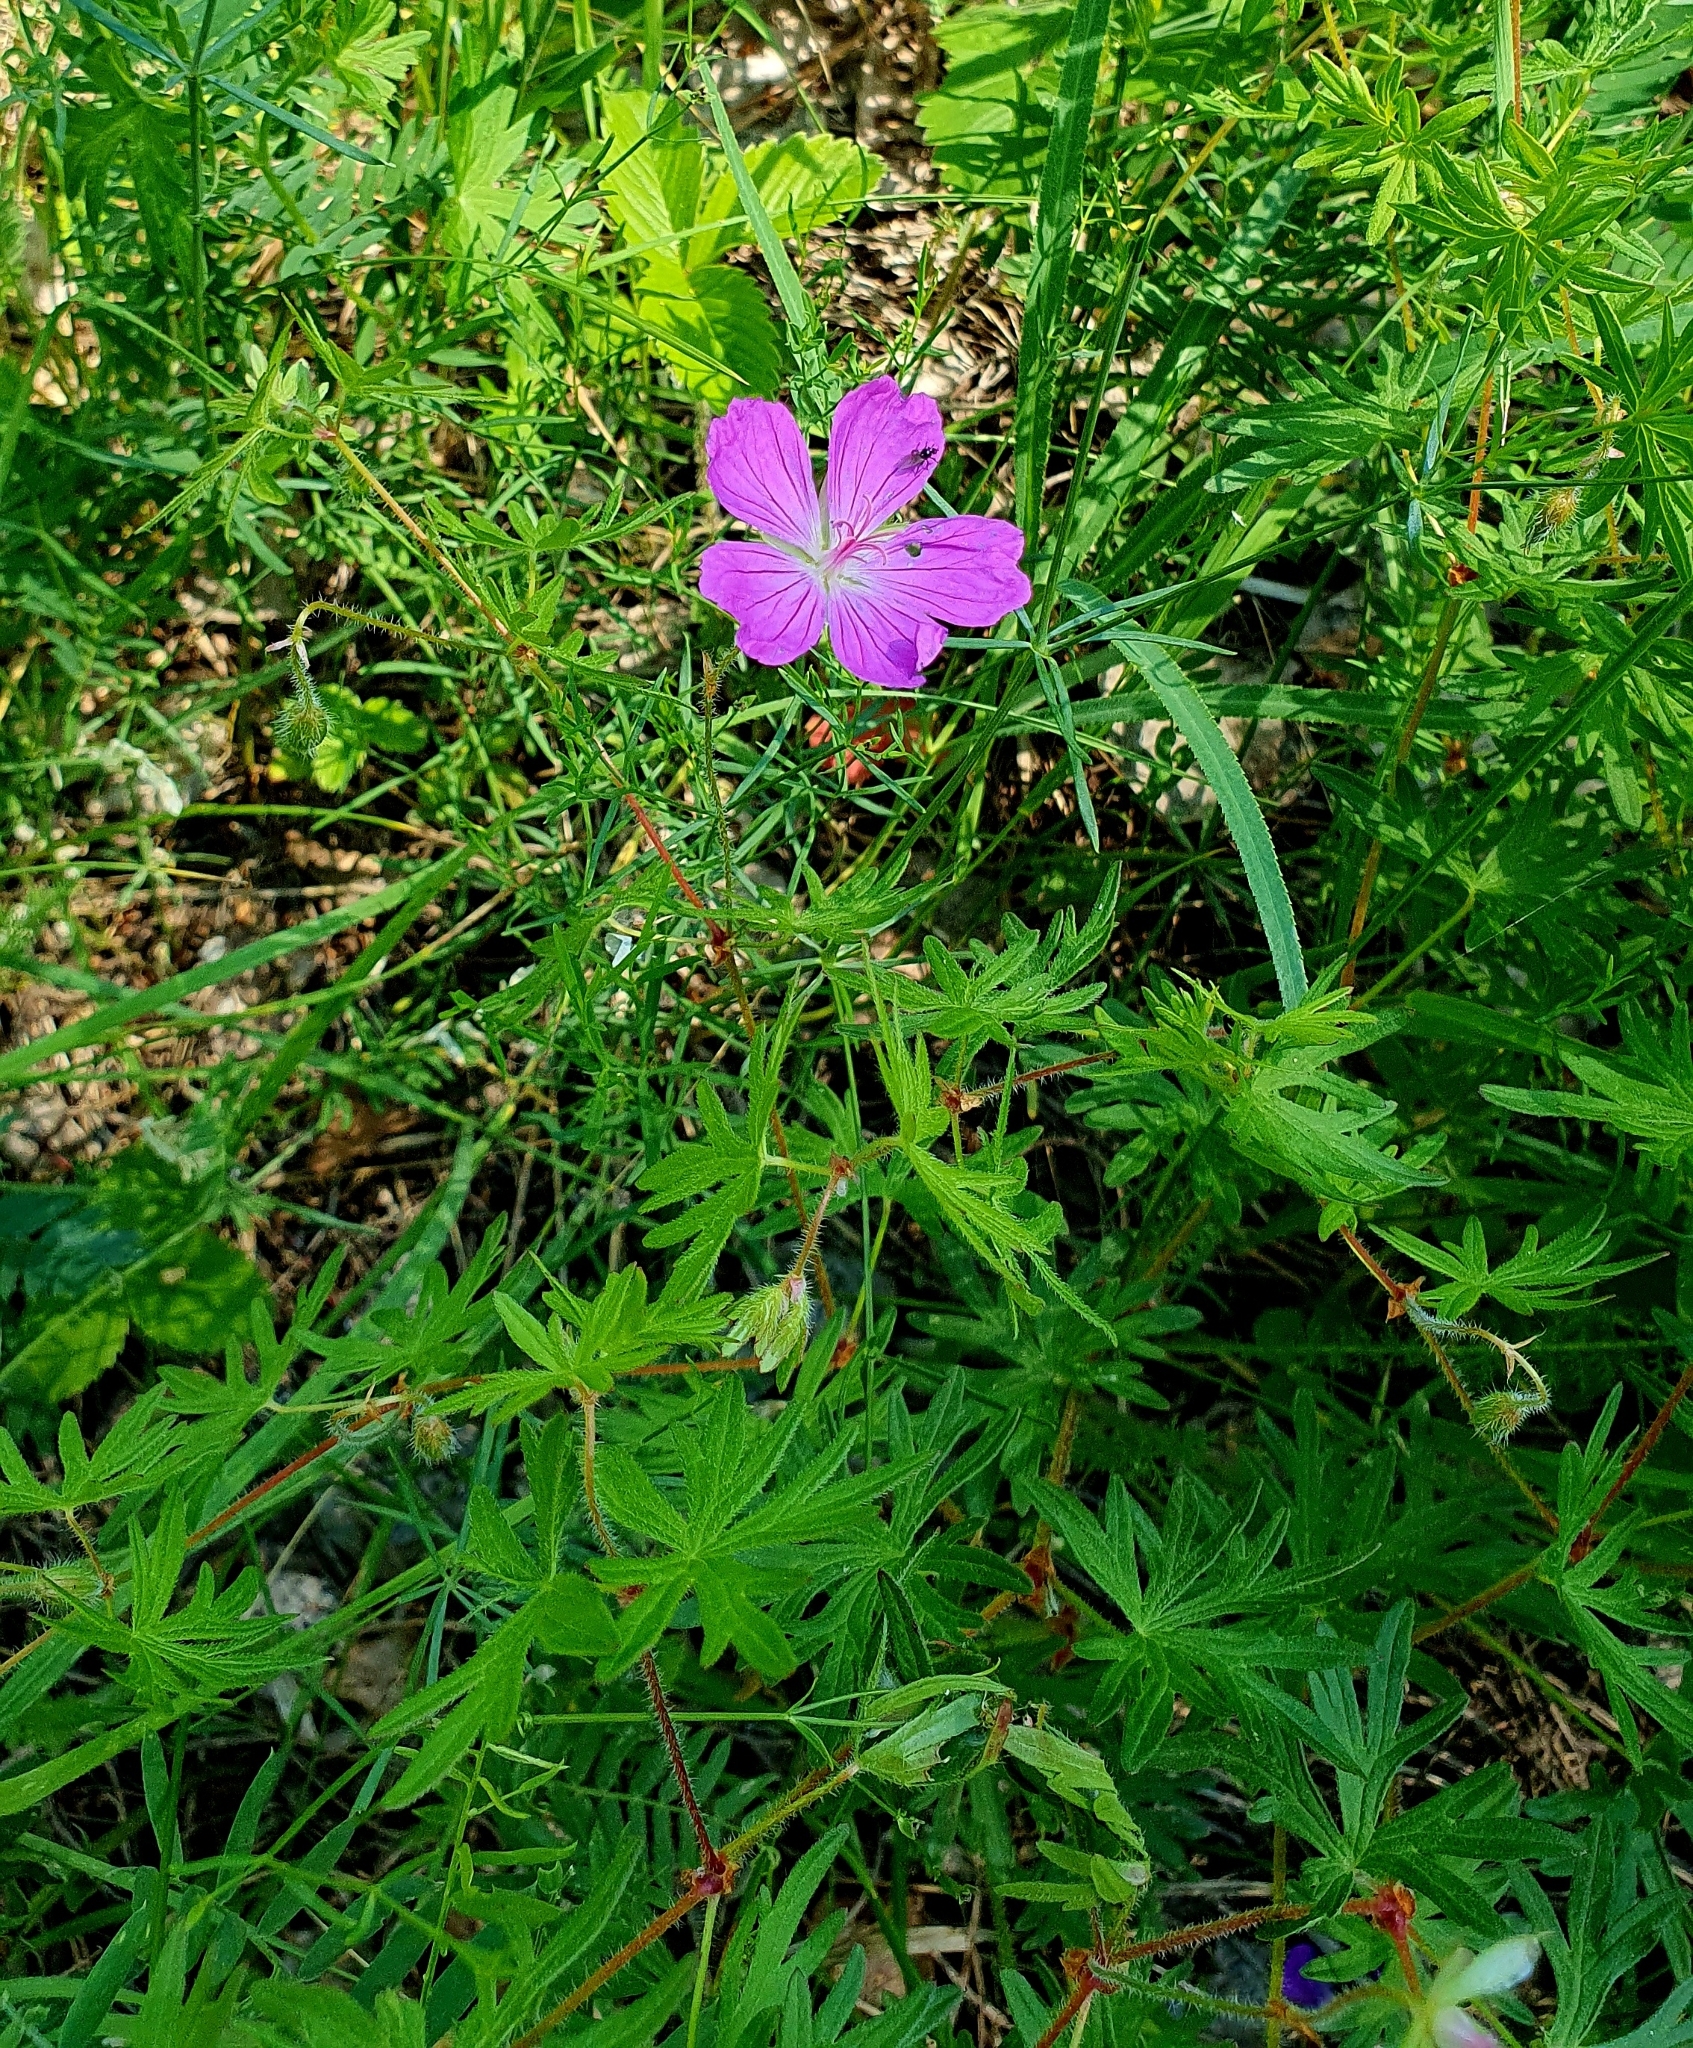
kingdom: Plantae
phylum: Tracheophyta
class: Magnoliopsida
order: Geraniales
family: Geraniaceae
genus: Geranium
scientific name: Geranium sanguineum
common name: Bloody crane's-bill
